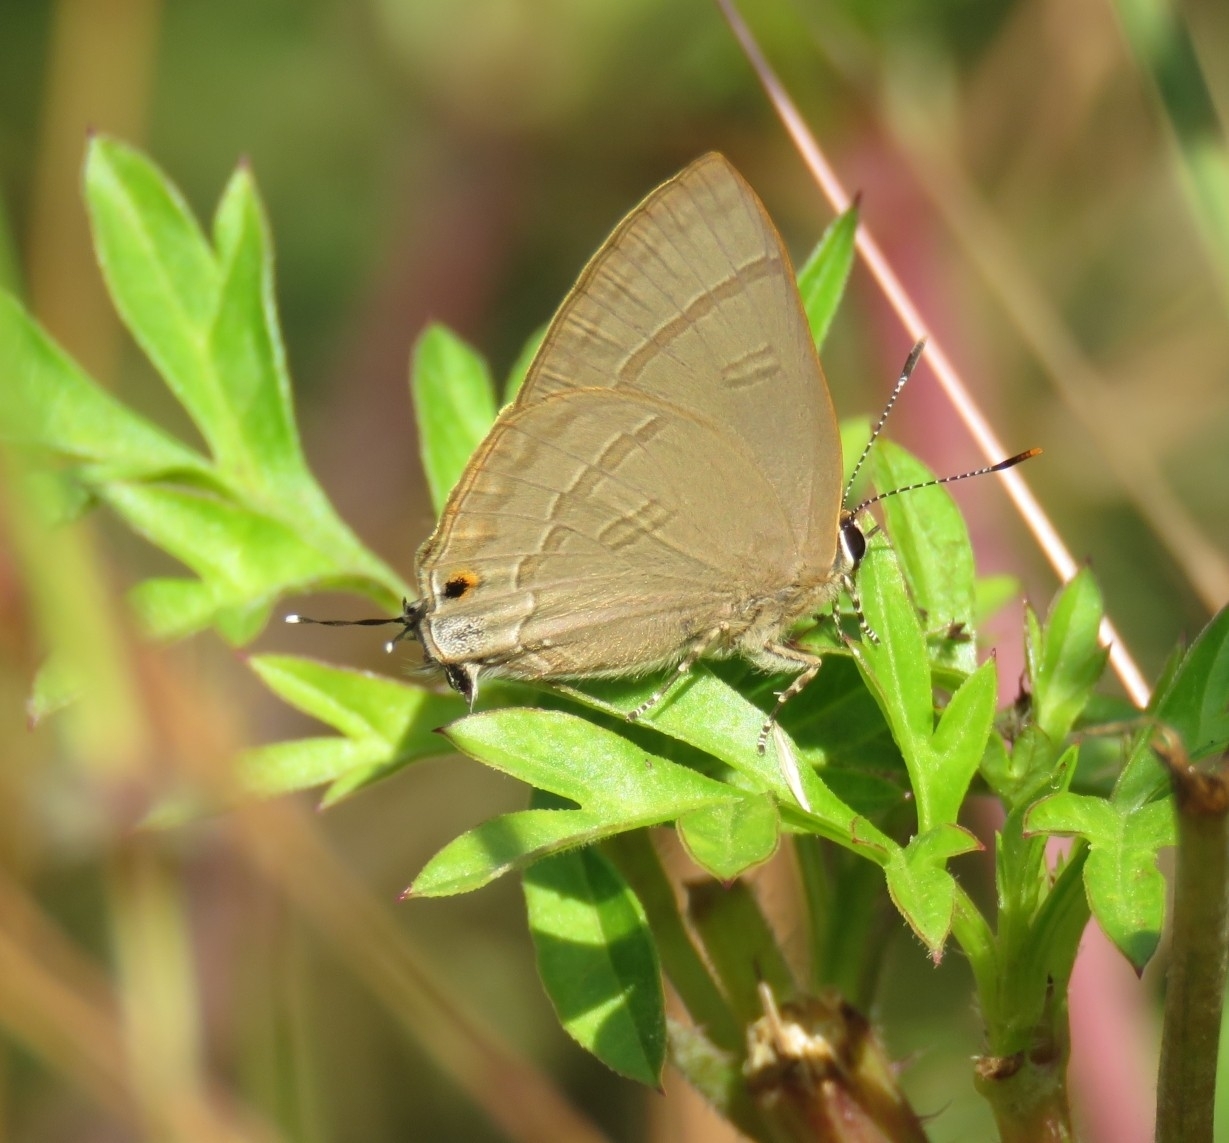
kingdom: Animalia
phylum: Arthropoda
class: Insecta
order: Lepidoptera
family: Lycaenidae
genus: Rapala
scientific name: Rapala iarbus
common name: Common red flash
